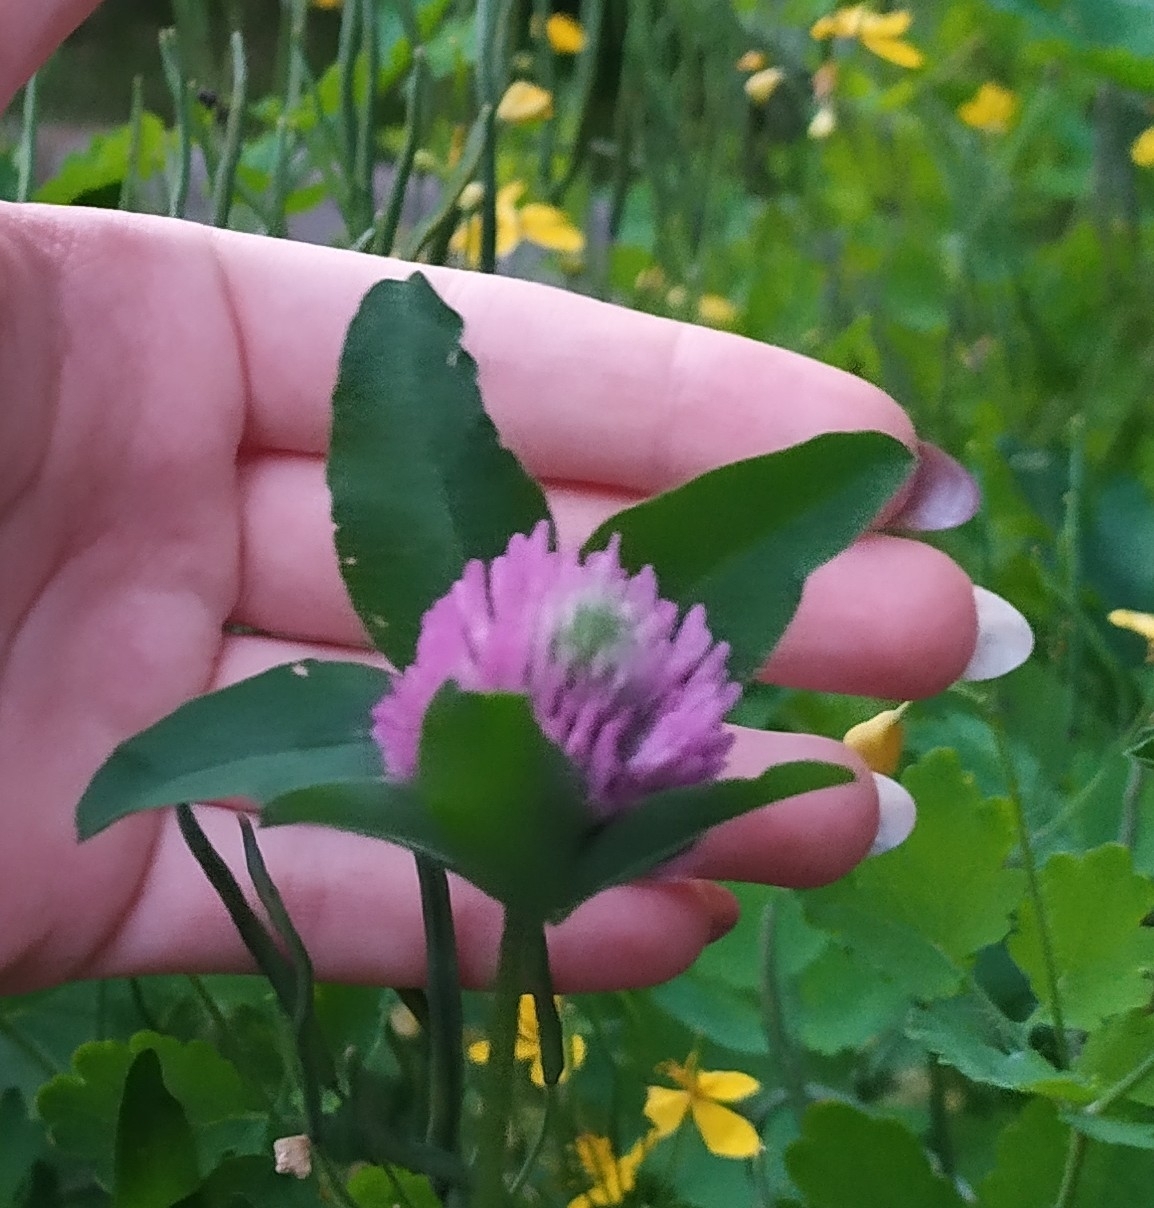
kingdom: Plantae
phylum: Tracheophyta
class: Magnoliopsida
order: Fabales
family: Fabaceae
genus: Trifolium
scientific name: Trifolium pratense
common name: Red clover
